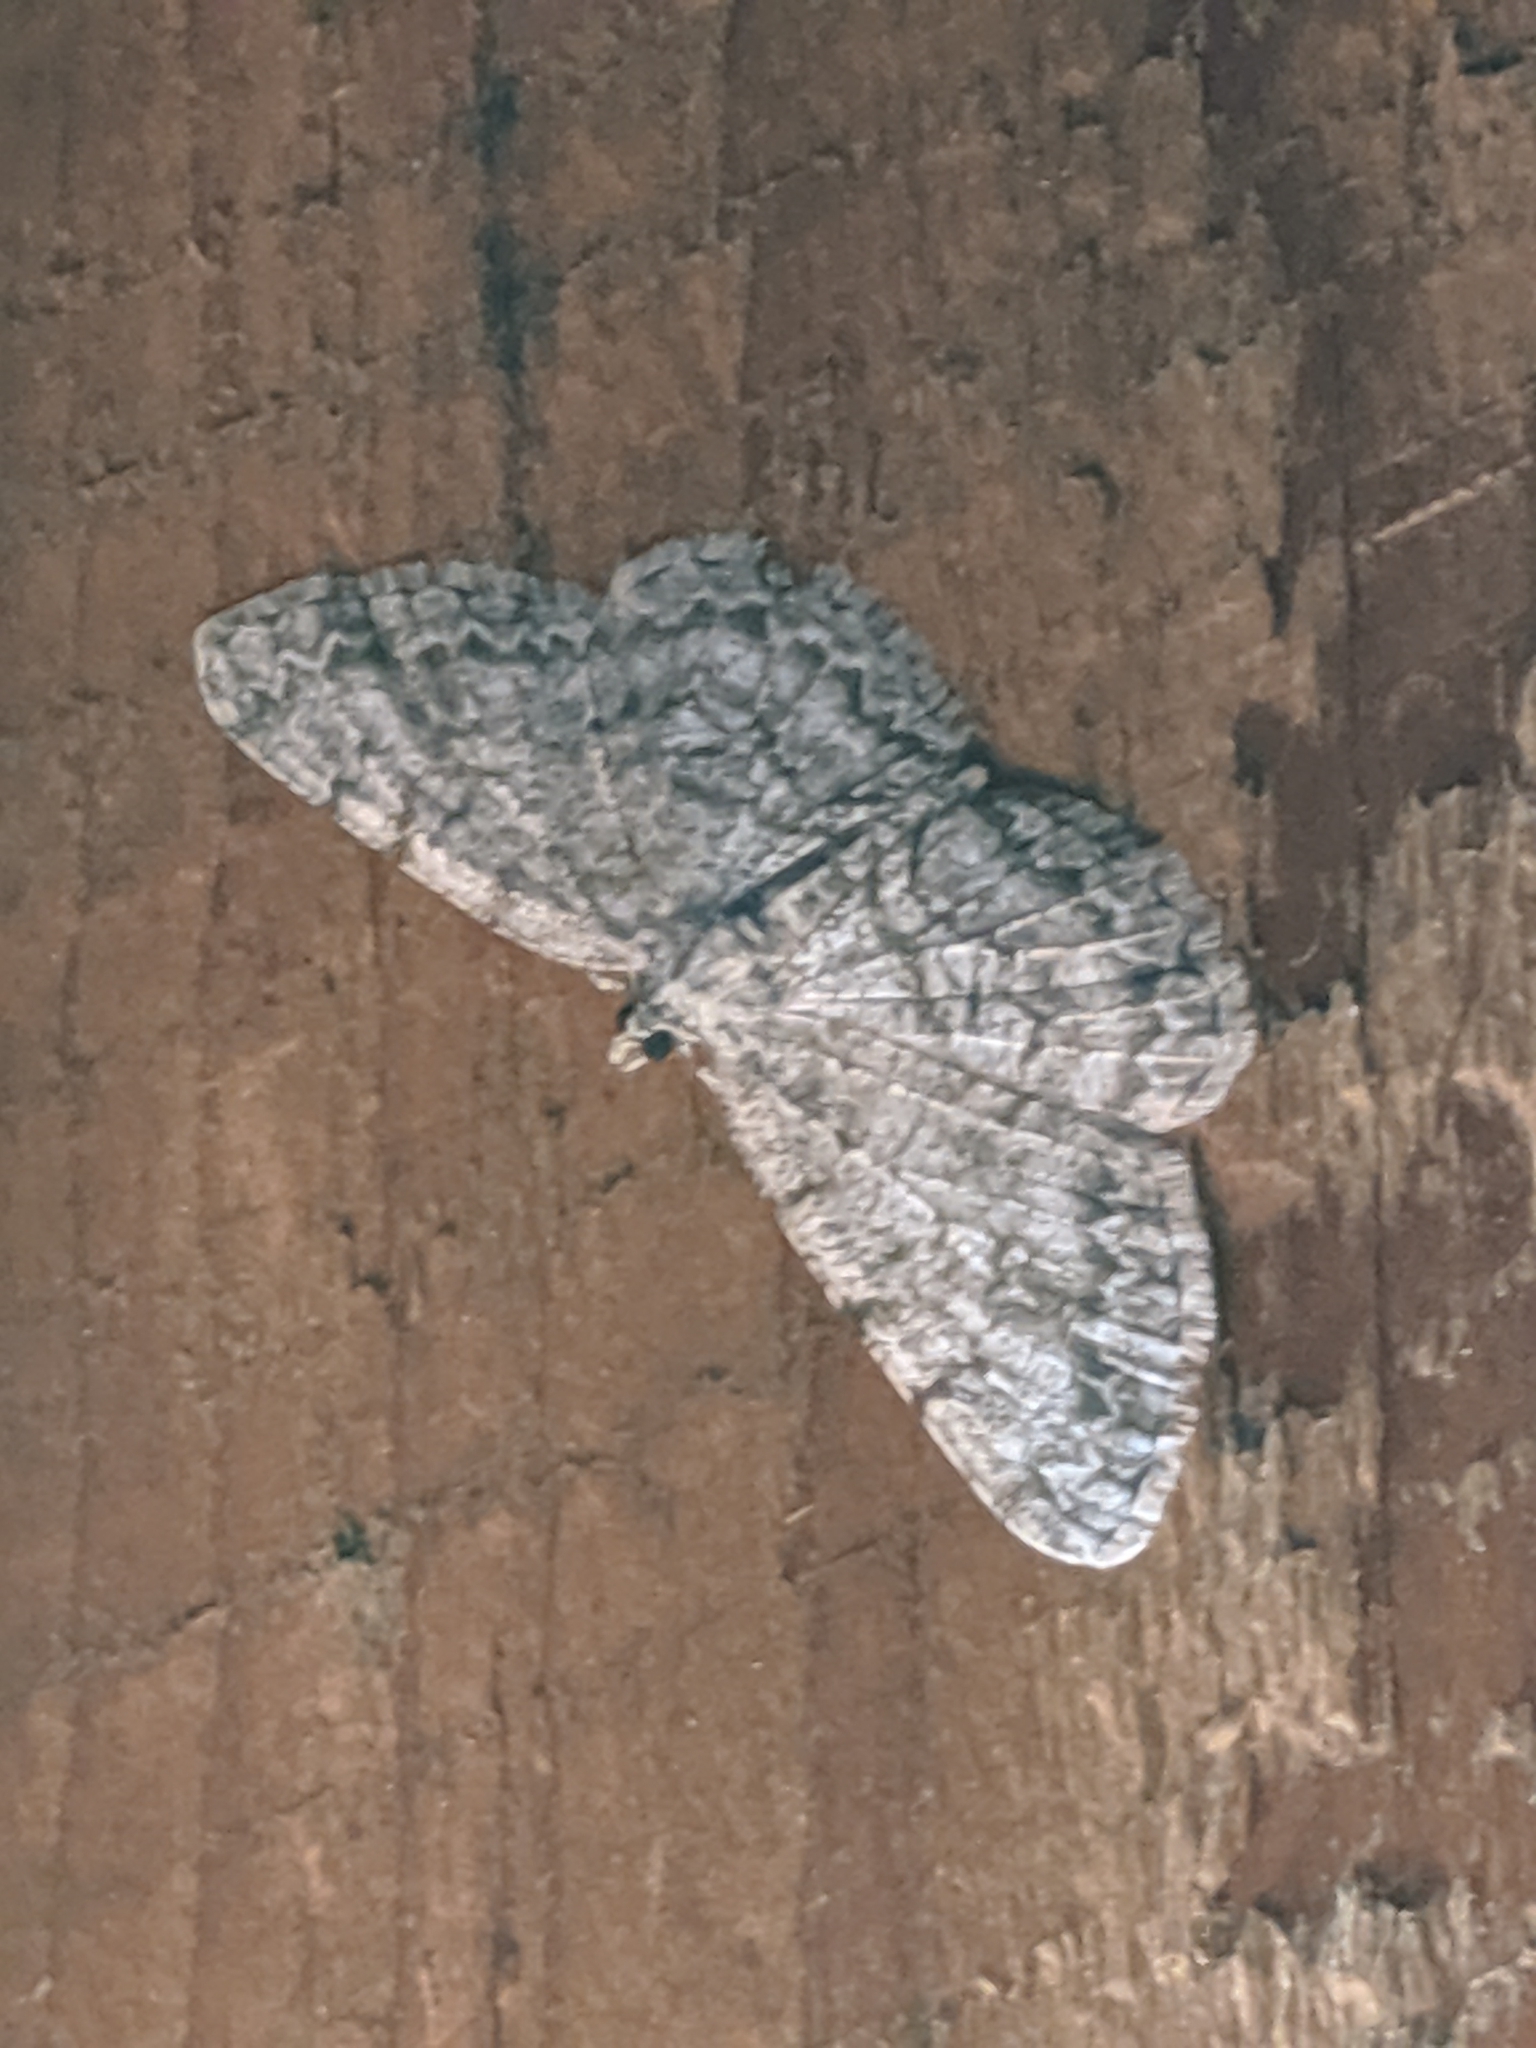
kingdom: Animalia
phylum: Arthropoda
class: Insecta
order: Lepidoptera
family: Geometridae
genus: Protoboarmia
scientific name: Protoboarmia porcelaria
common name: Porcelain gray
